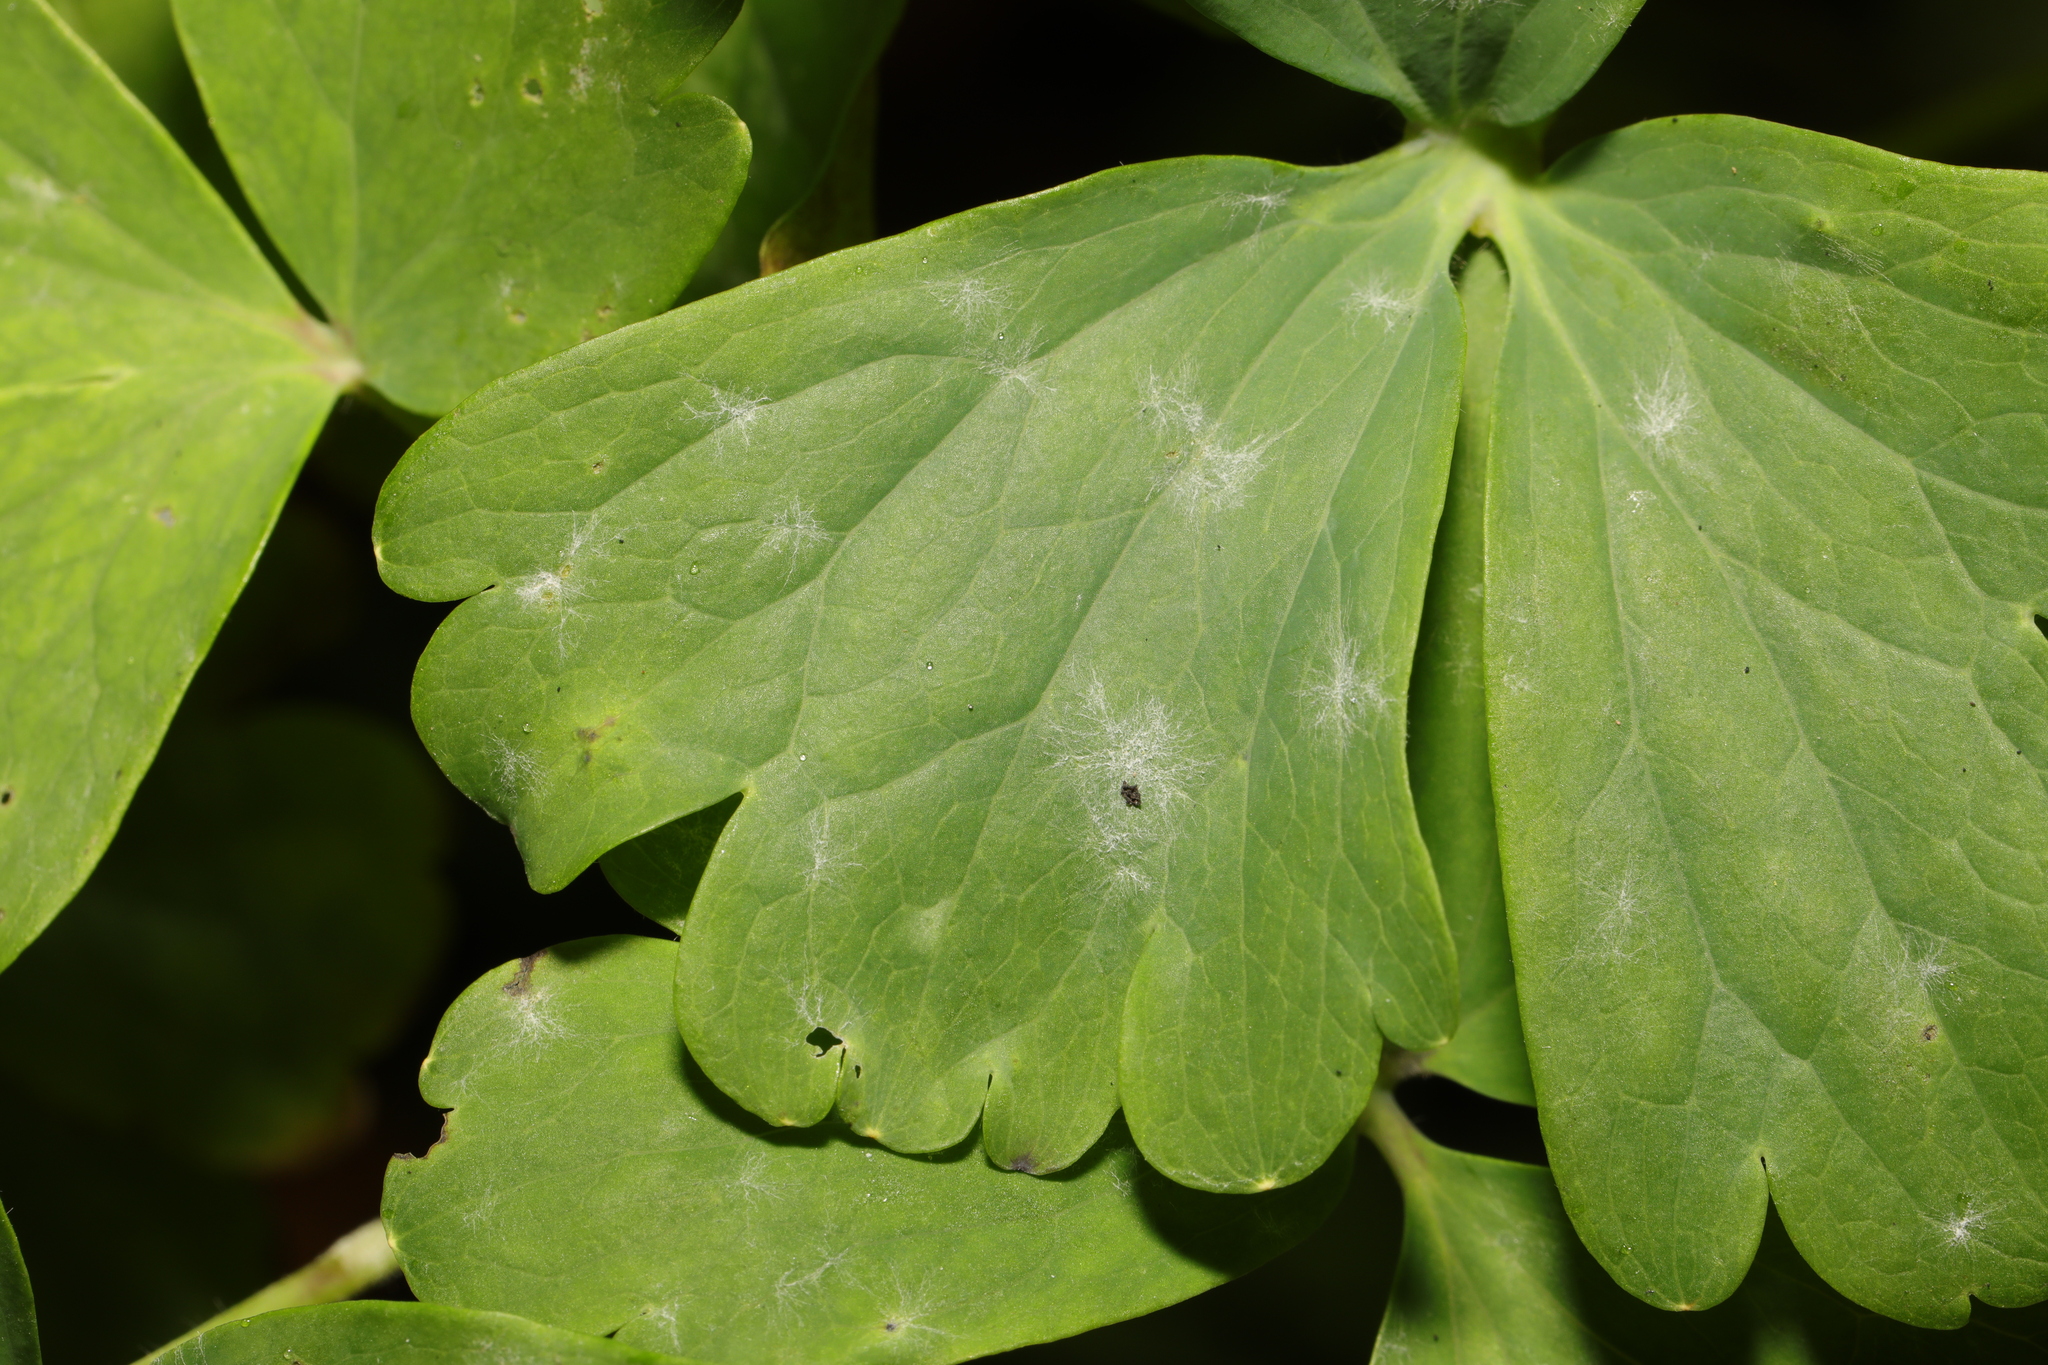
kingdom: Fungi
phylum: Ascomycota
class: Leotiomycetes
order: Helotiales
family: Erysiphaceae
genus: Erysiphe
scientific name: Erysiphe aquilegiae
